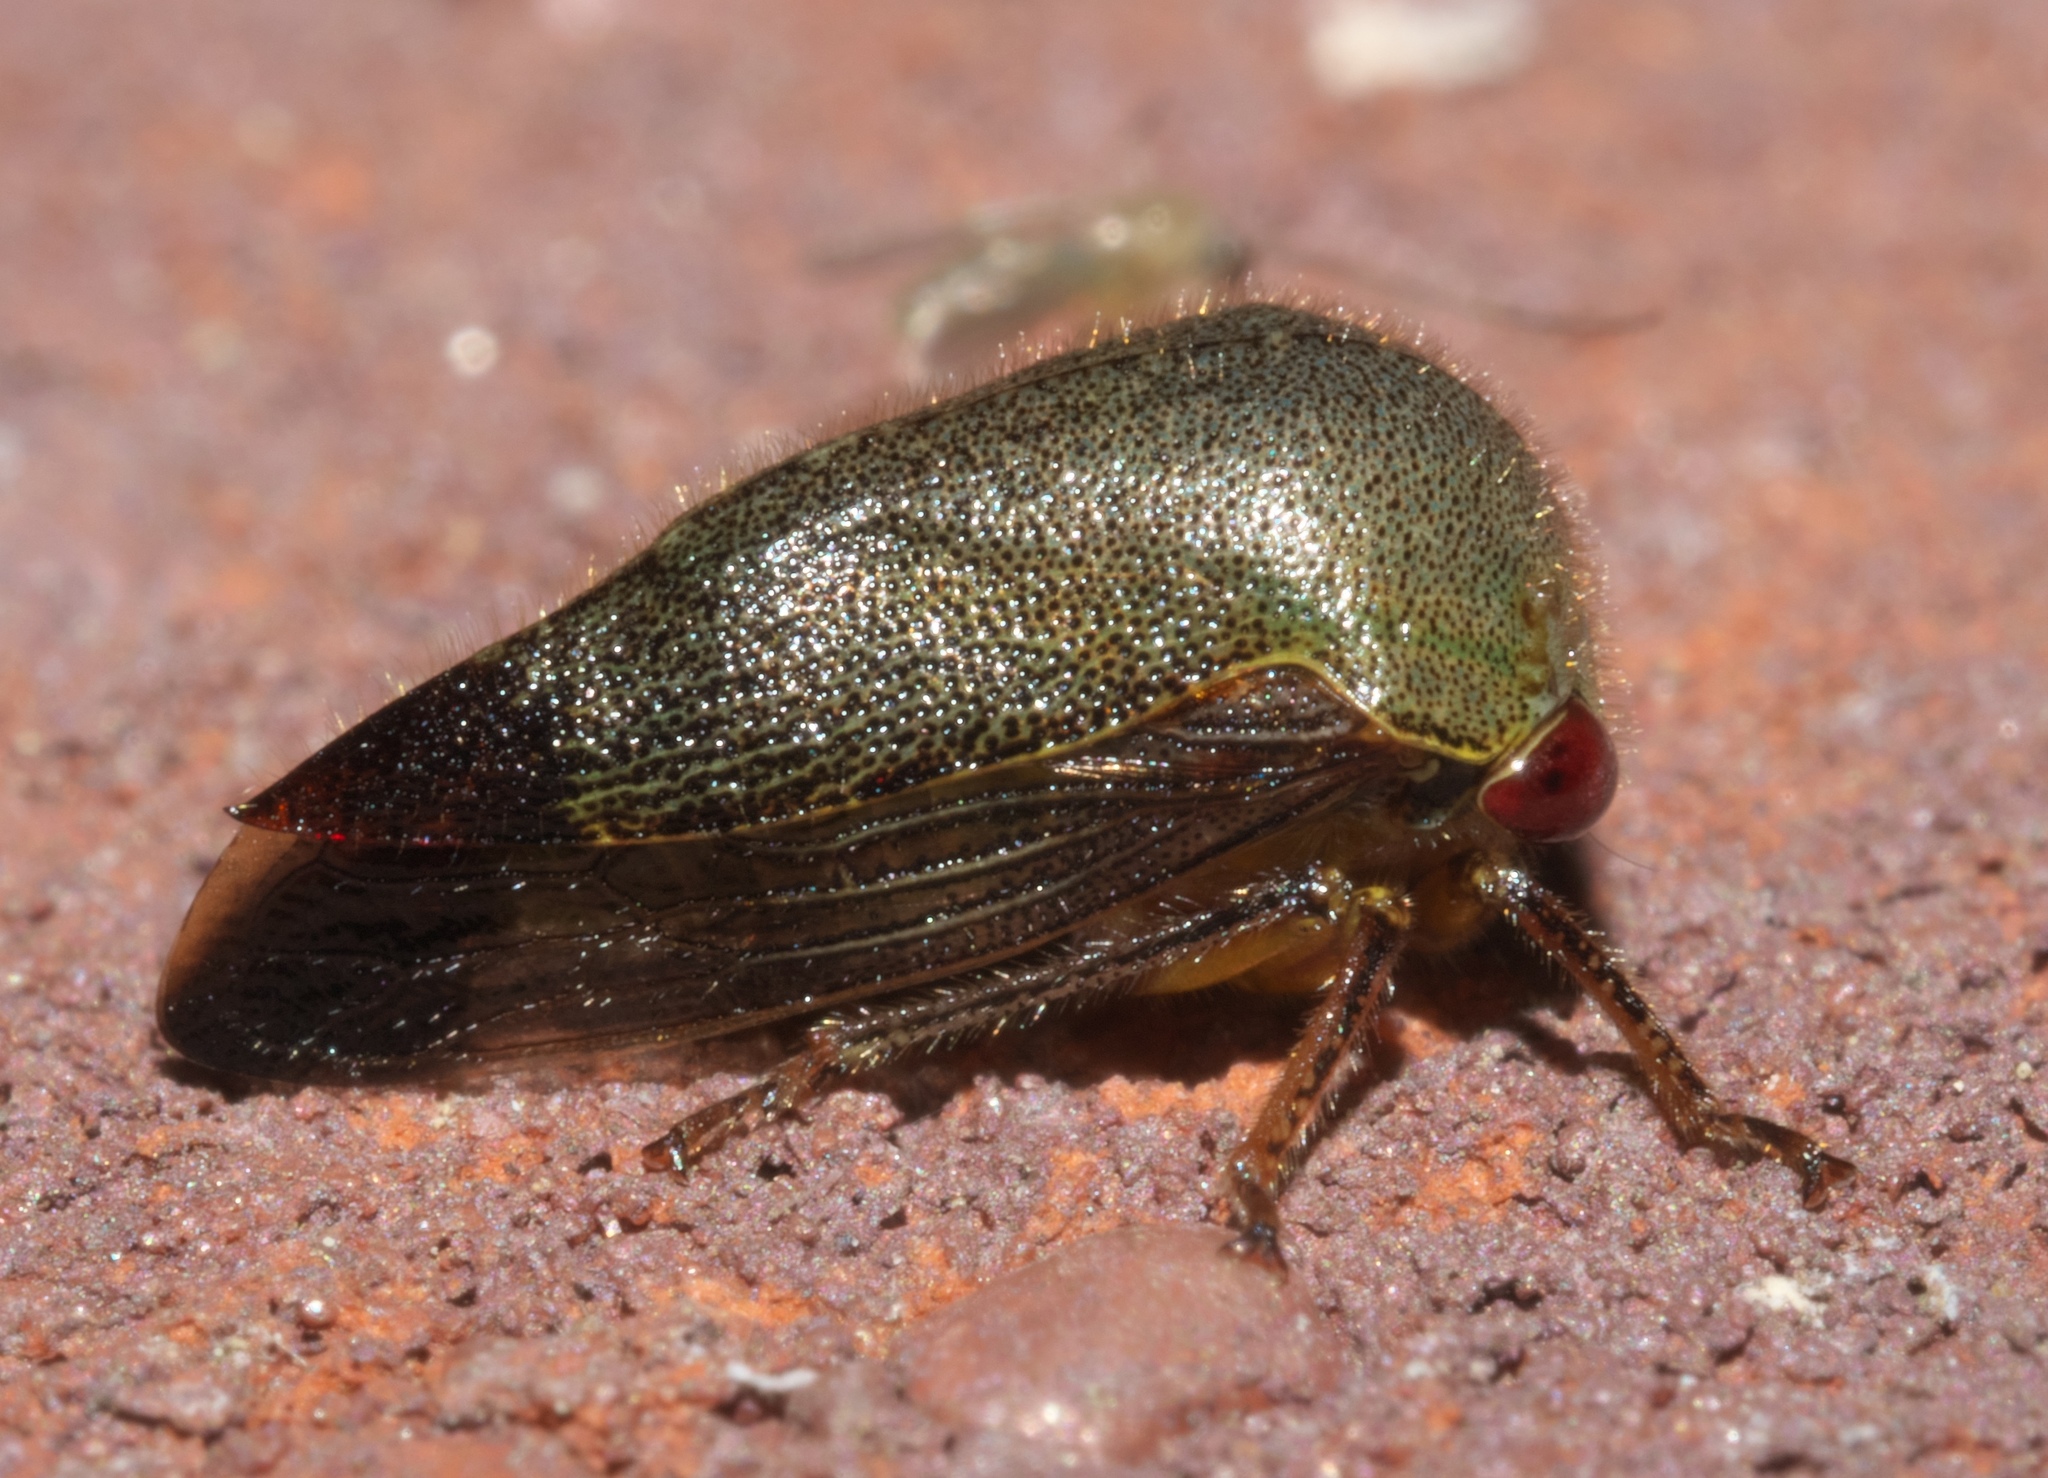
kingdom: Animalia
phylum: Arthropoda
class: Insecta
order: Hemiptera
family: Membracidae
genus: Carynota
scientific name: Carynota mera
